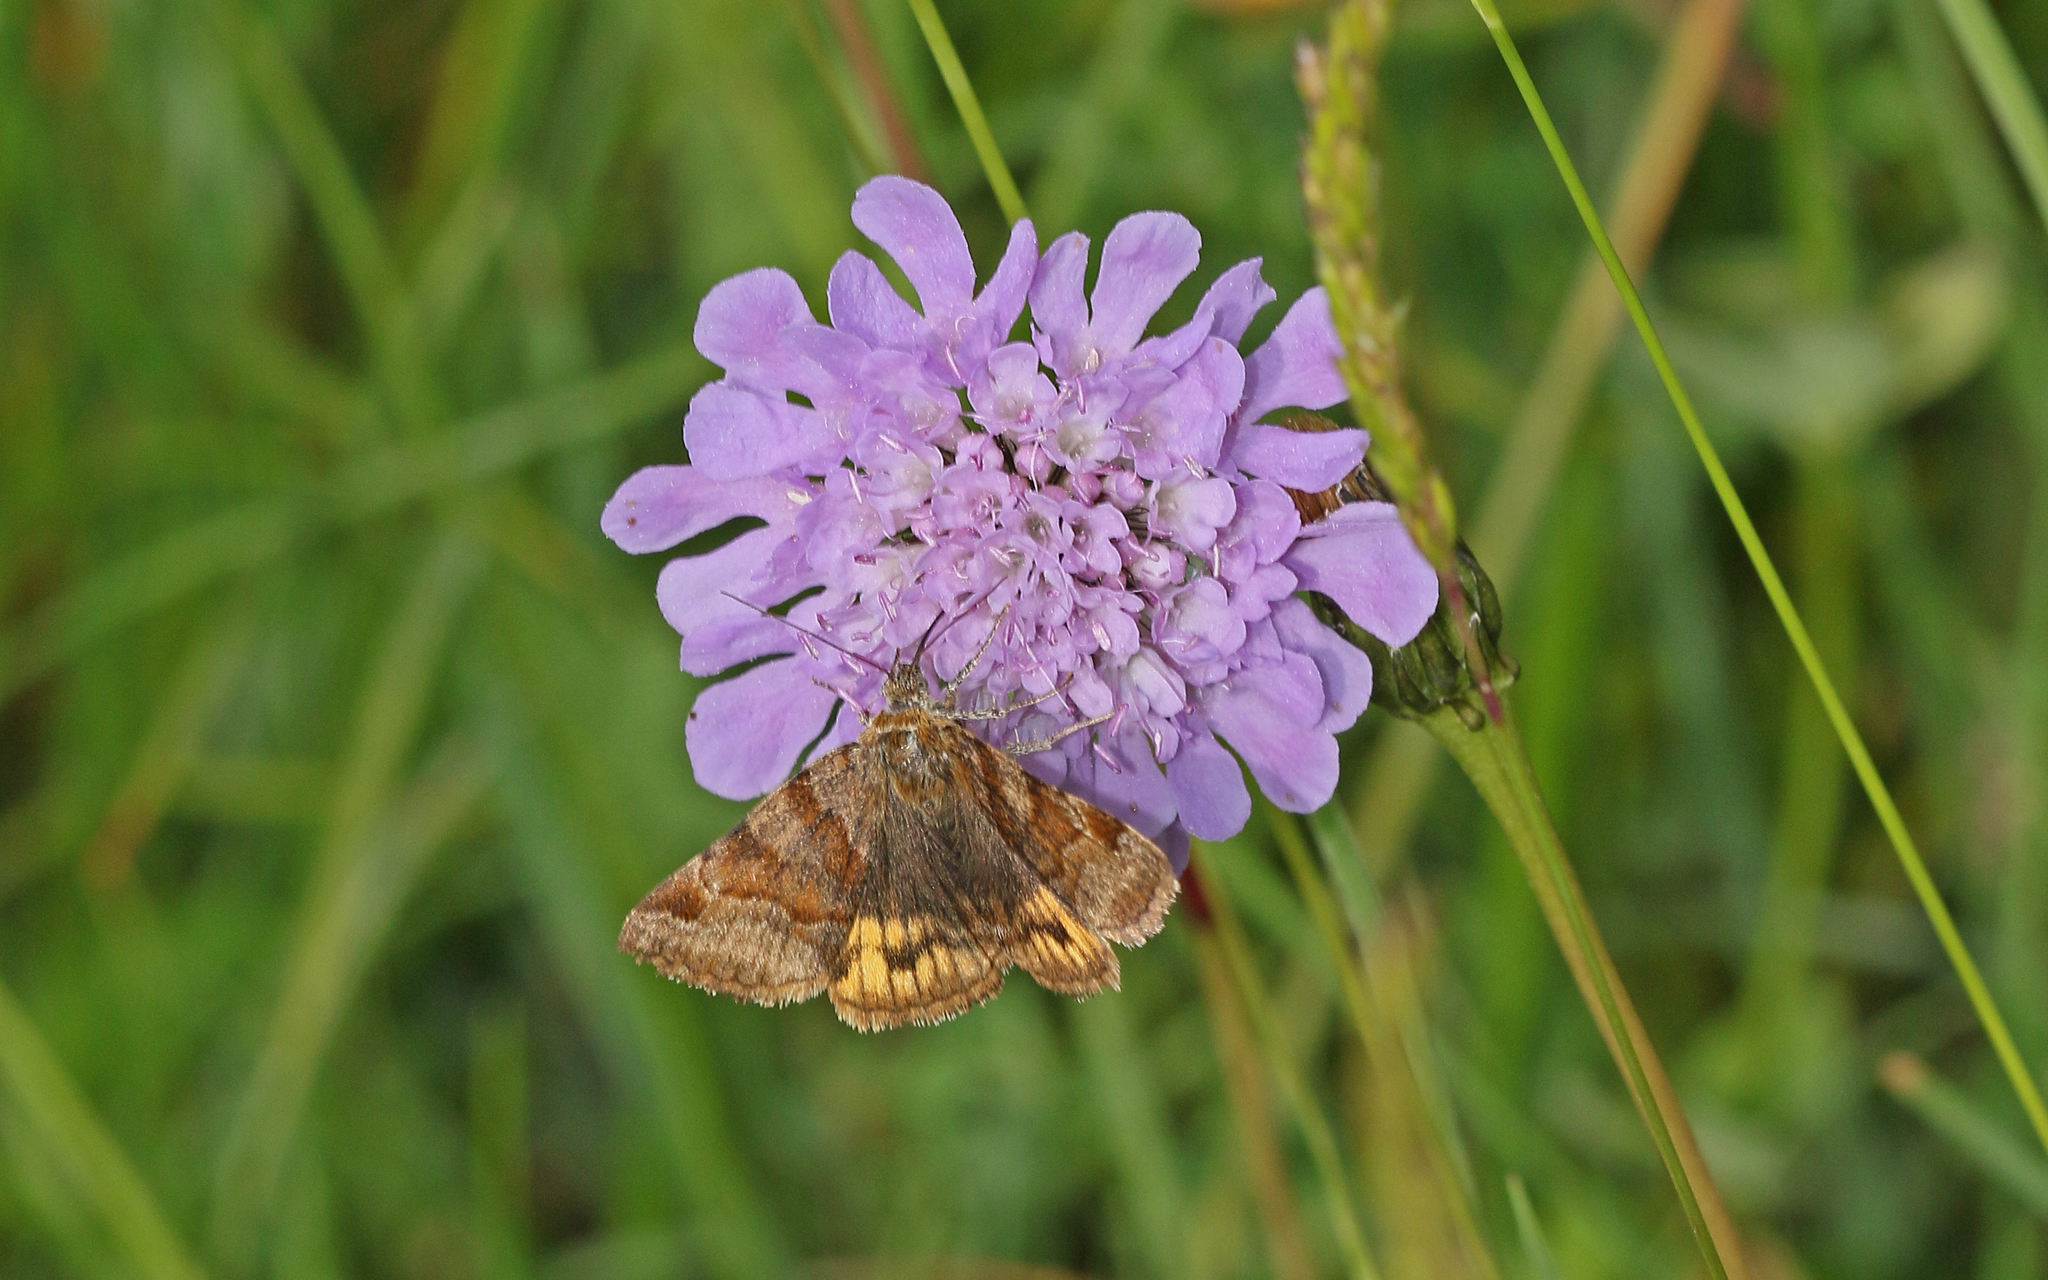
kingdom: Animalia
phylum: Arthropoda
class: Insecta
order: Lepidoptera
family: Erebidae
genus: Euclidia
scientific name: Euclidia glyphica
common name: Burnet companion
